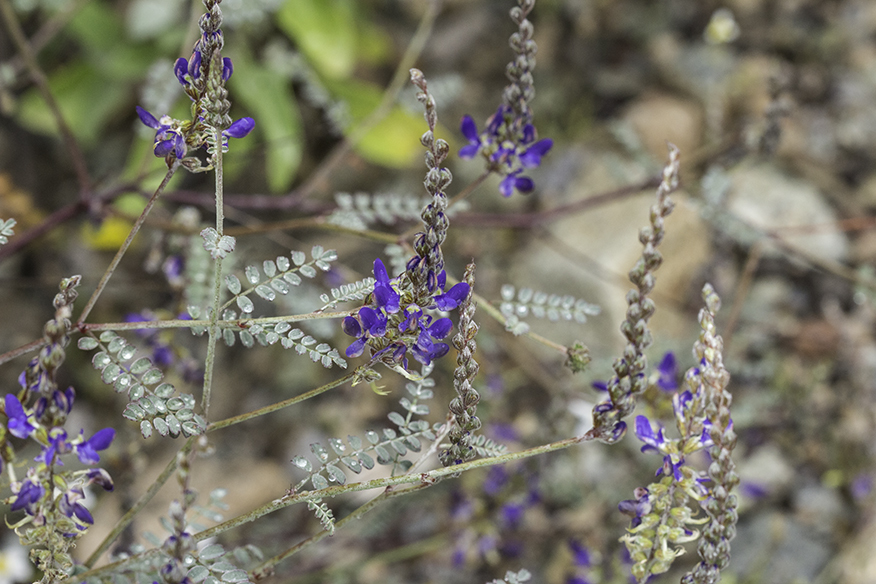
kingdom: Plantae
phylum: Tracheophyta
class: Magnoliopsida
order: Fabales
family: Fabaceae
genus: Marina
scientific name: Marina parryi
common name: Parry's marina
